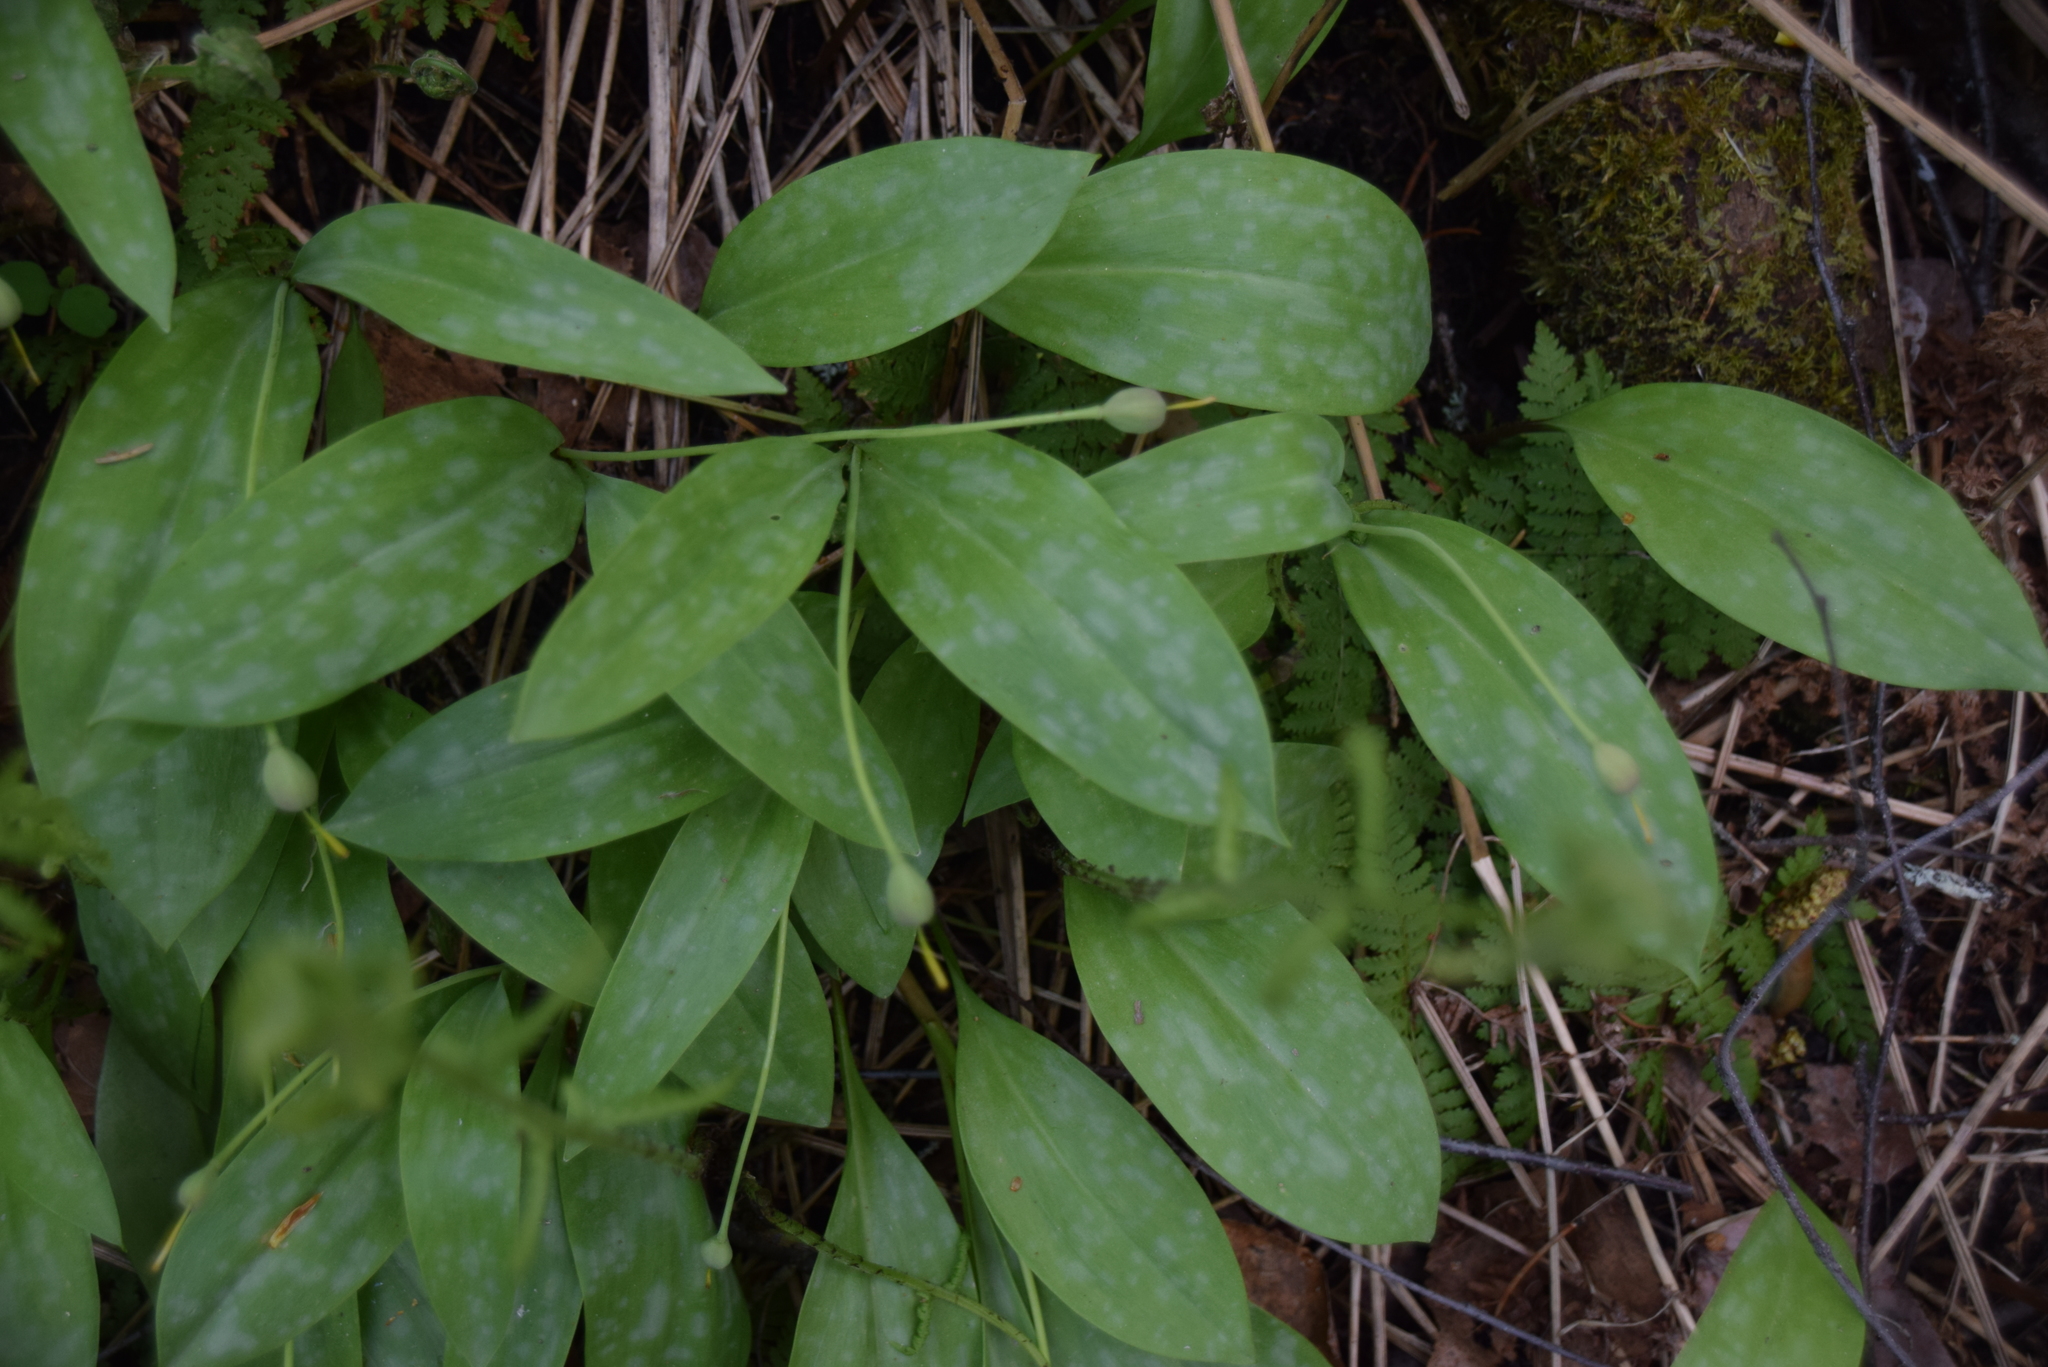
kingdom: Plantae
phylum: Tracheophyta
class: Liliopsida
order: Liliales
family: Liliaceae
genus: Erythronium
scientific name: Erythronium americanum
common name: Yellow adder's-tongue
